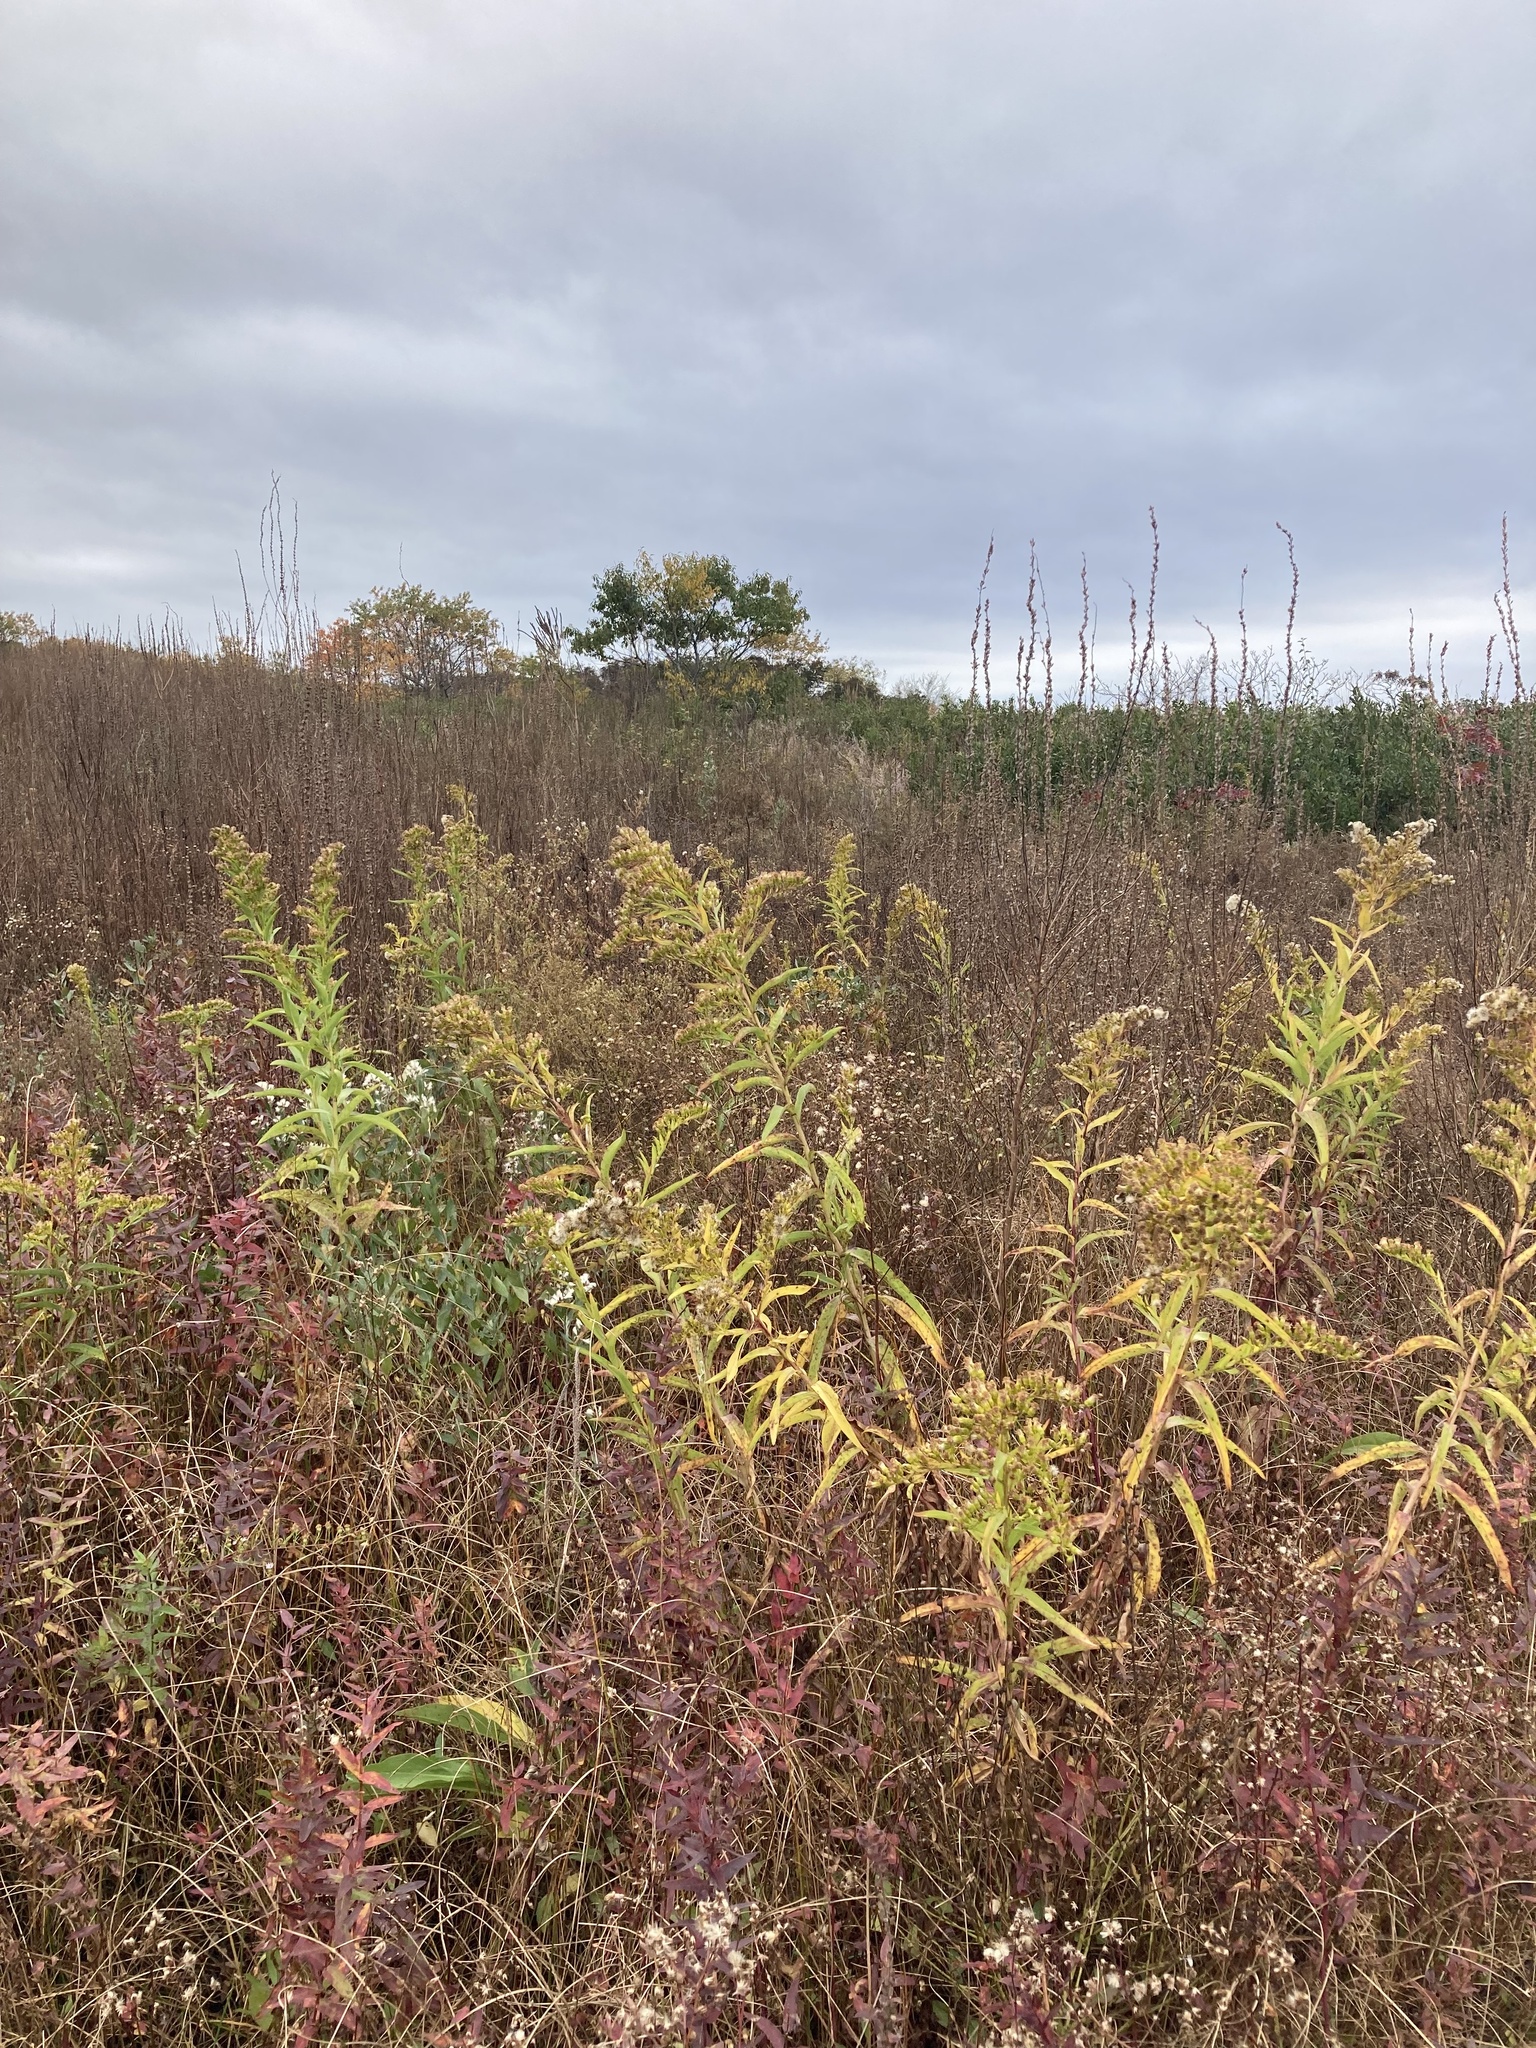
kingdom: Plantae
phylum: Tracheophyta
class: Magnoliopsida
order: Asterales
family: Asteraceae
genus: Solidago
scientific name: Solidago sempervirens
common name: Salt-marsh goldenrod
